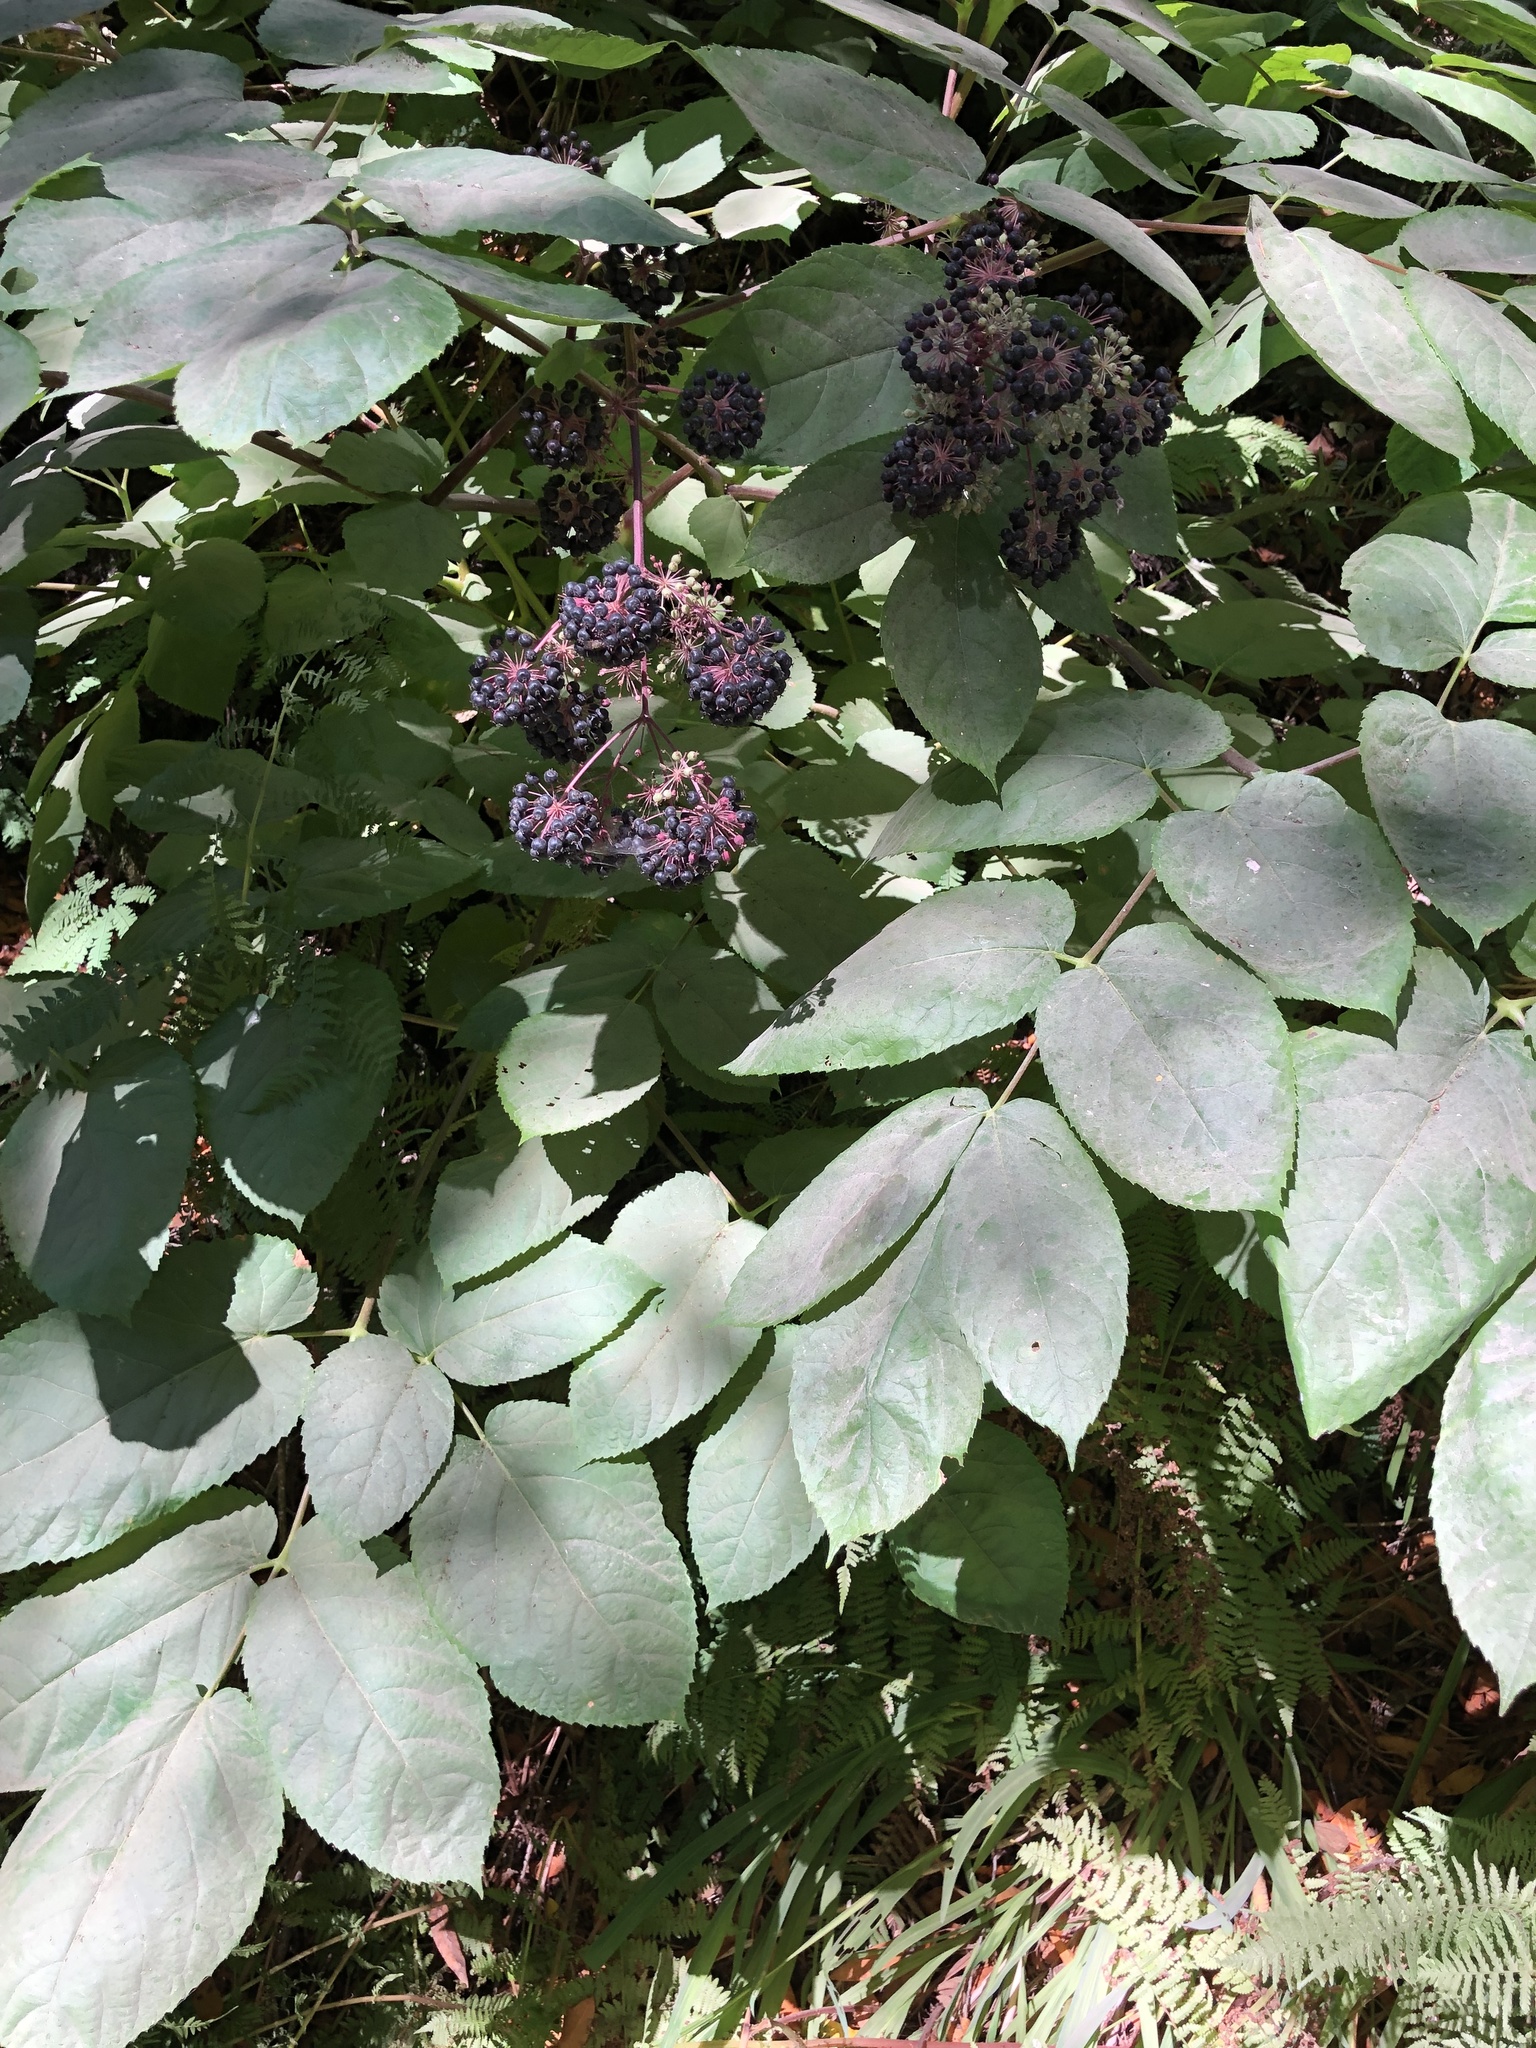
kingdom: Plantae
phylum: Tracheophyta
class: Magnoliopsida
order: Apiales
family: Araliaceae
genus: Aralia
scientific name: Aralia californica
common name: California-ginseng
